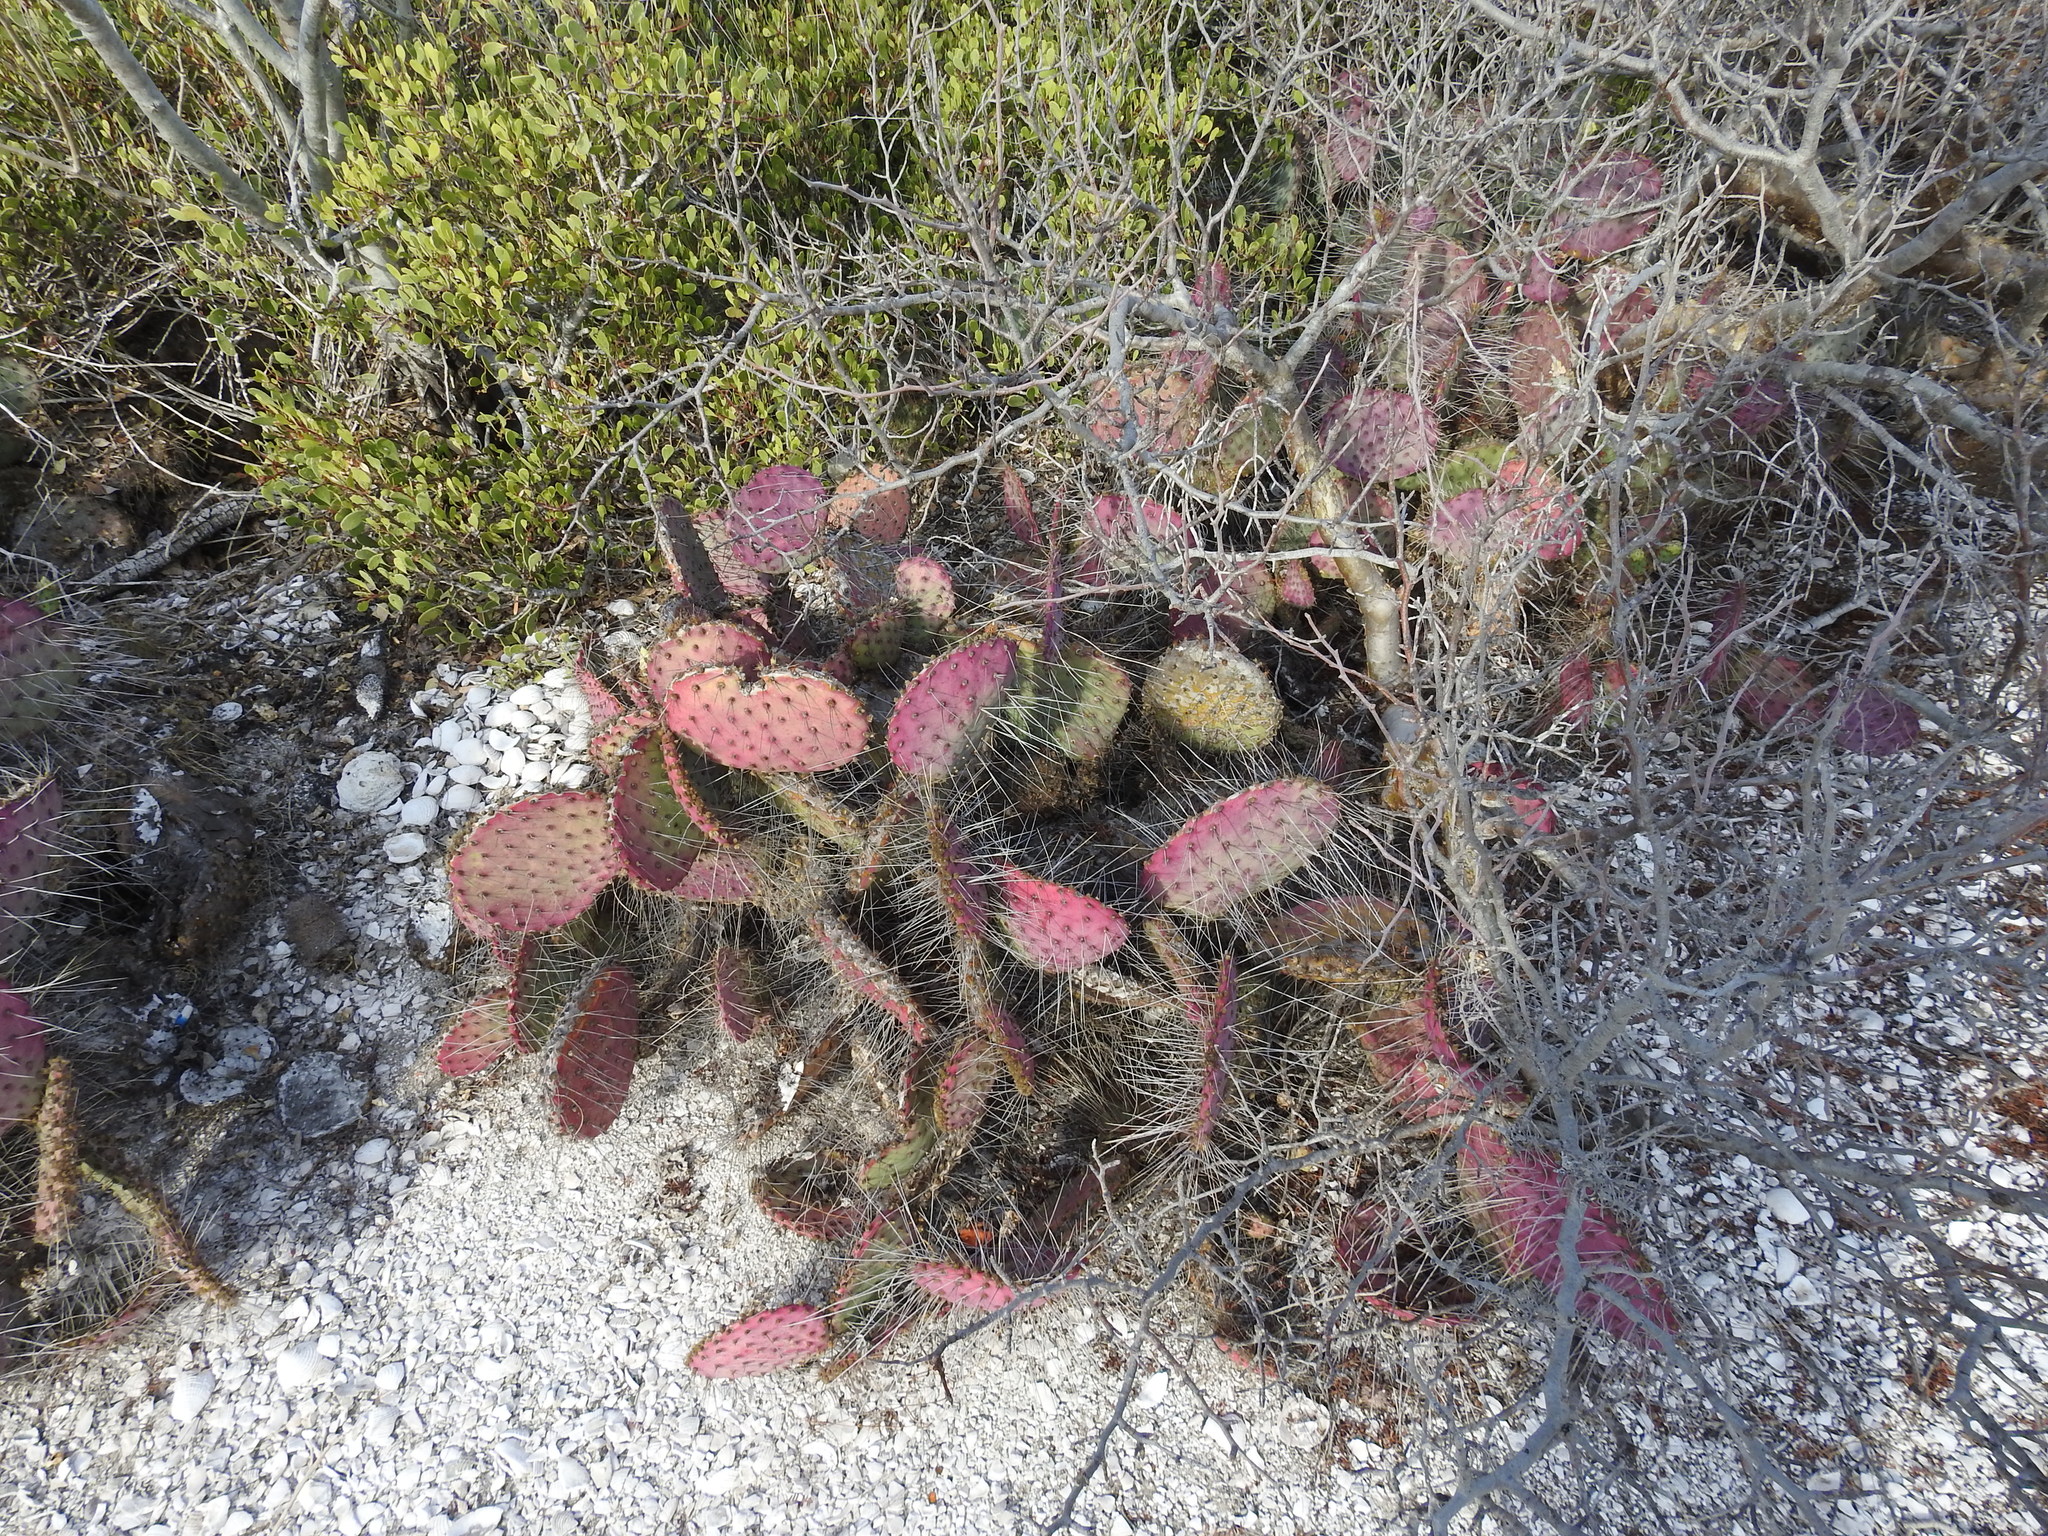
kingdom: Plantae
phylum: Tracheophyta
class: Magnoliopsida
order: Caryophyllales
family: Cactaceae
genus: Opuntia
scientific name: Opuntia gosseliniana
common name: Violet prickly-pear
